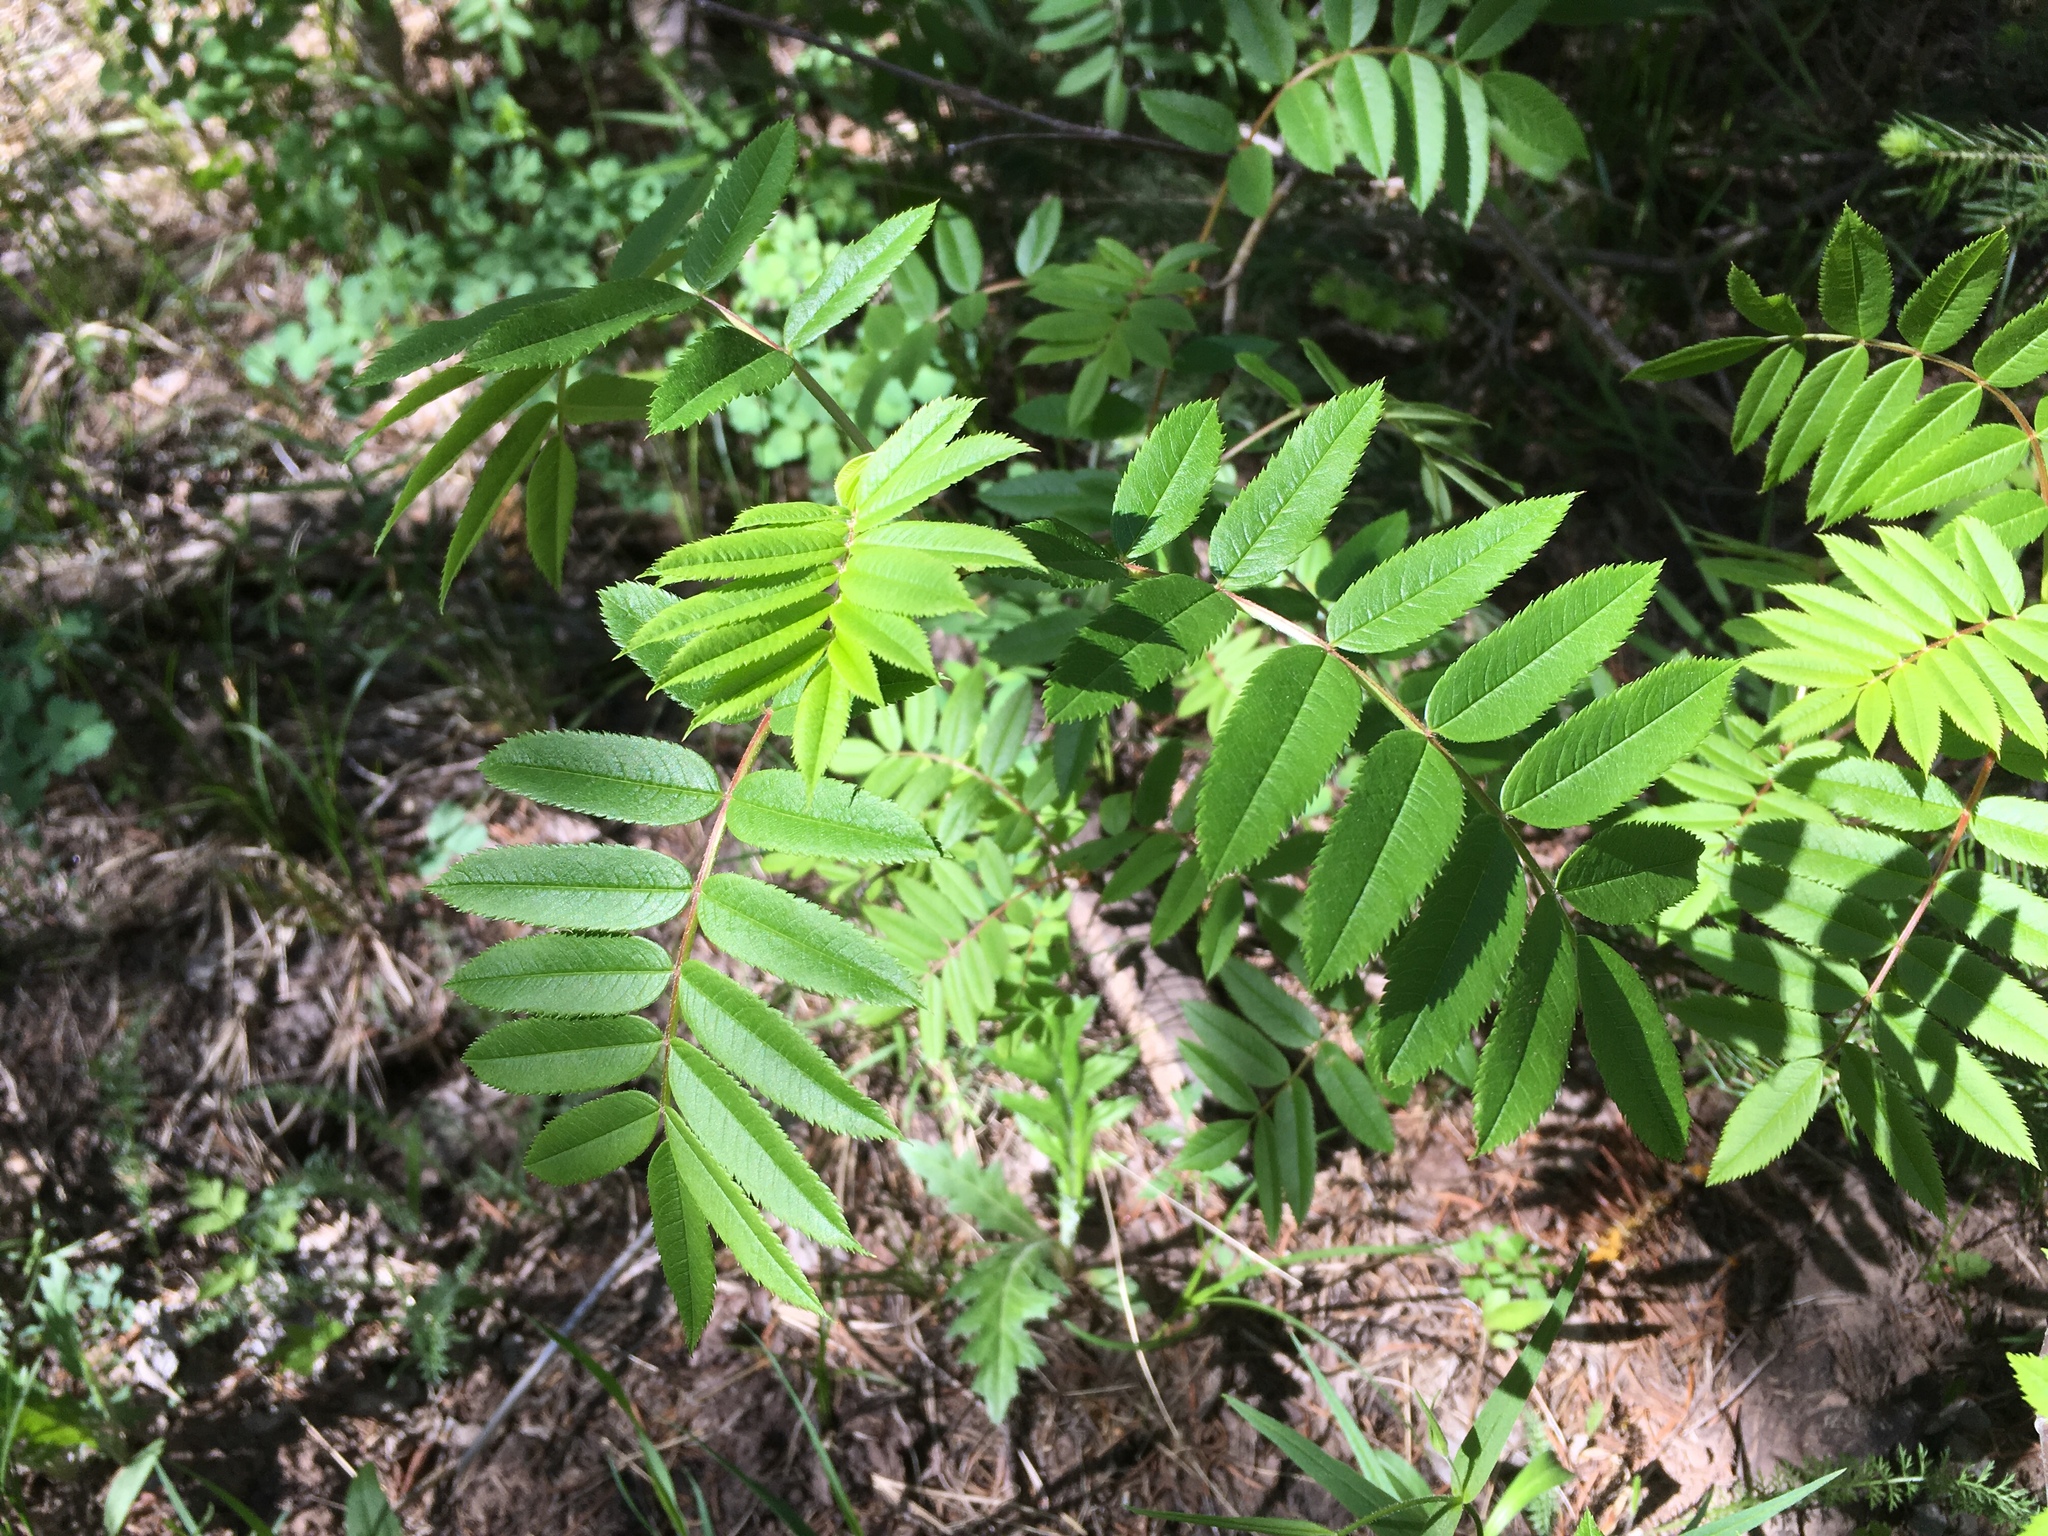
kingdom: Plantae
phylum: Tracheophyta
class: Magnoliopsida
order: Rosales
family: Rosaceae
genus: Sorbus
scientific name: Sorbus scopulina
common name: Greene's mountain-ash
